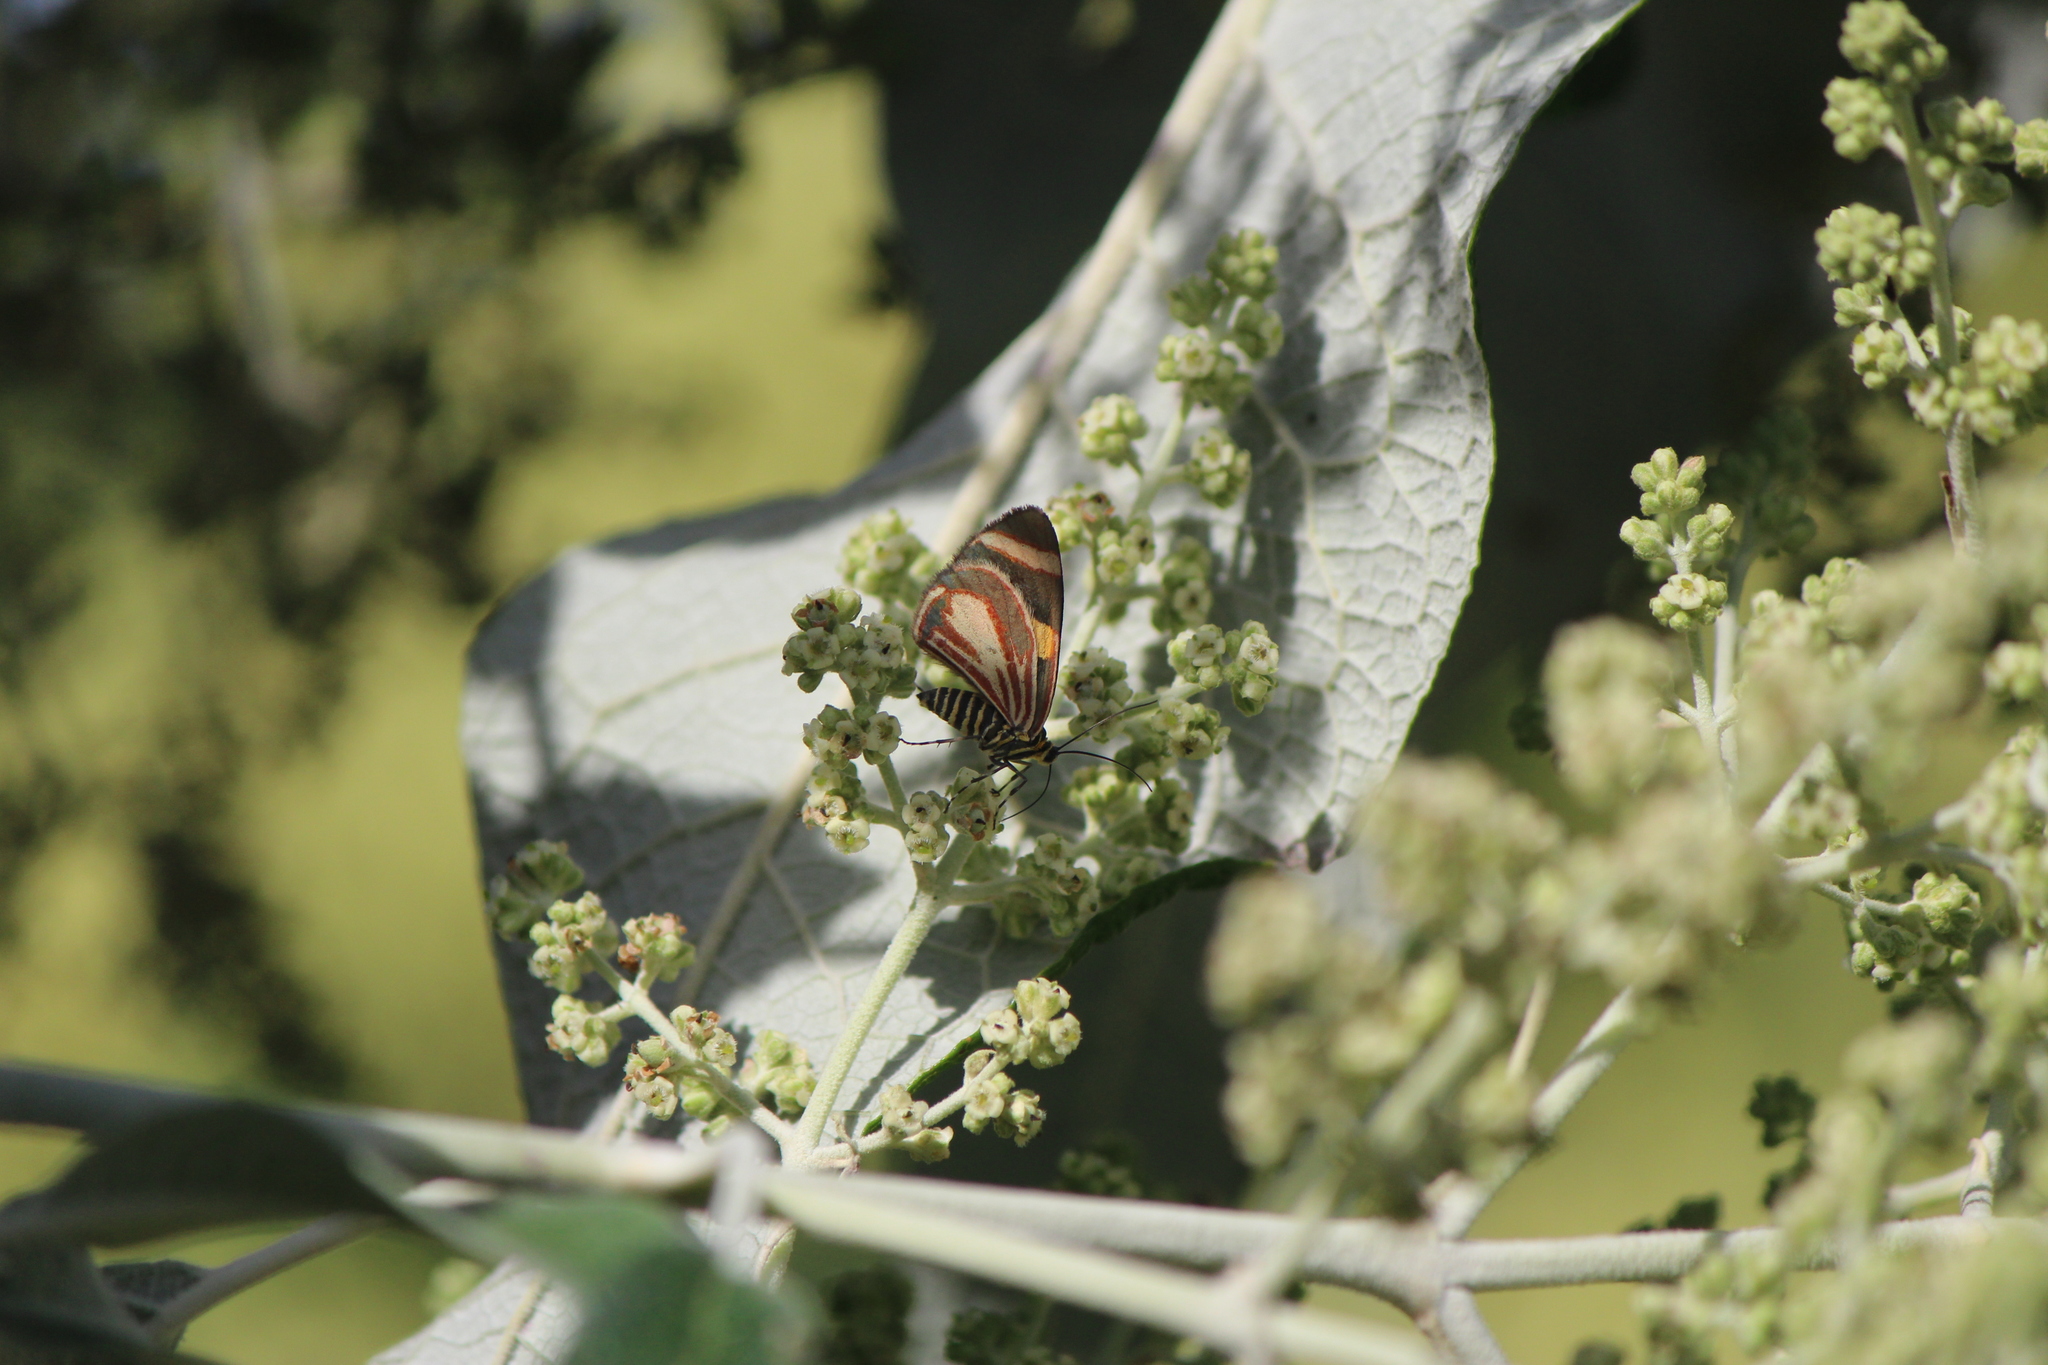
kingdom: Animalia
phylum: Arthropoda
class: Insecta
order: Lepidoptera
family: Geometridae
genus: Eutrepsia
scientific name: Eutrepsia haemataria
